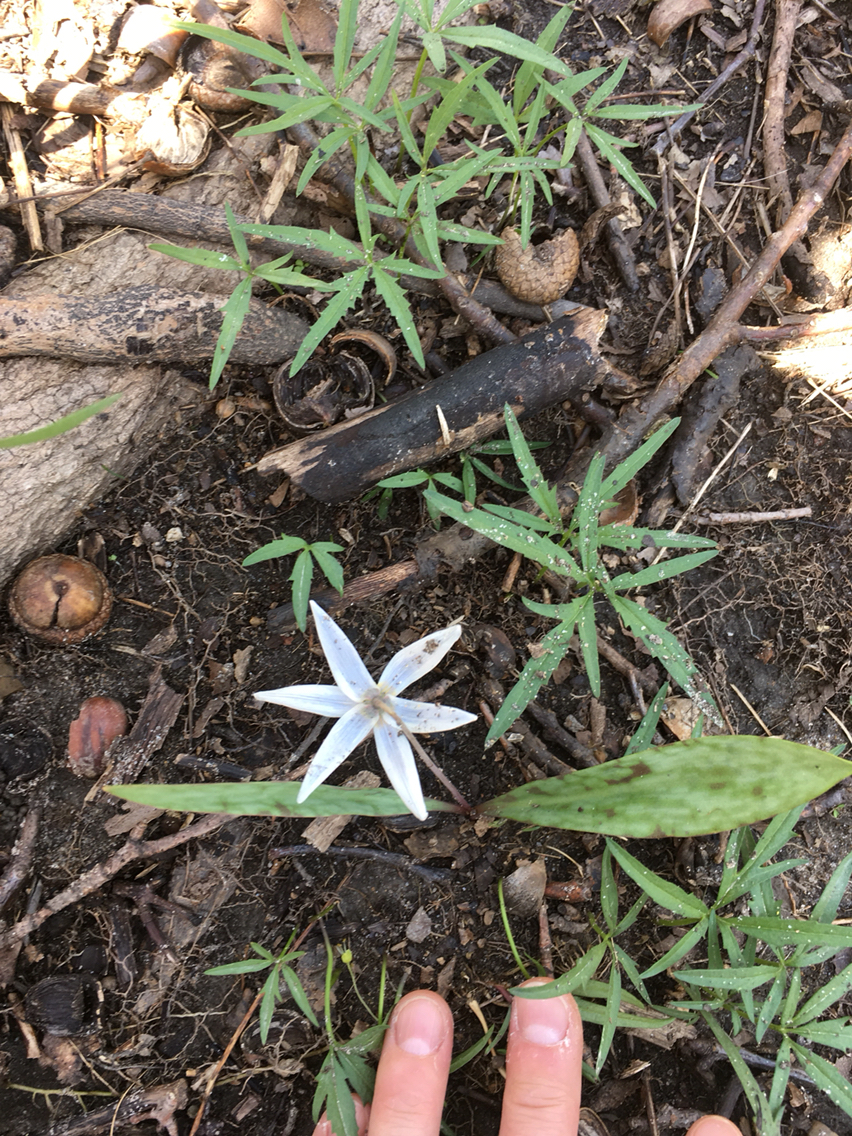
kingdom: Plantae
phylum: Tracheophyta
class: Liliopsida
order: Liliales
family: Liliaceae
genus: Erythronium
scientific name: Erythronium albidum
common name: White trout-lily
